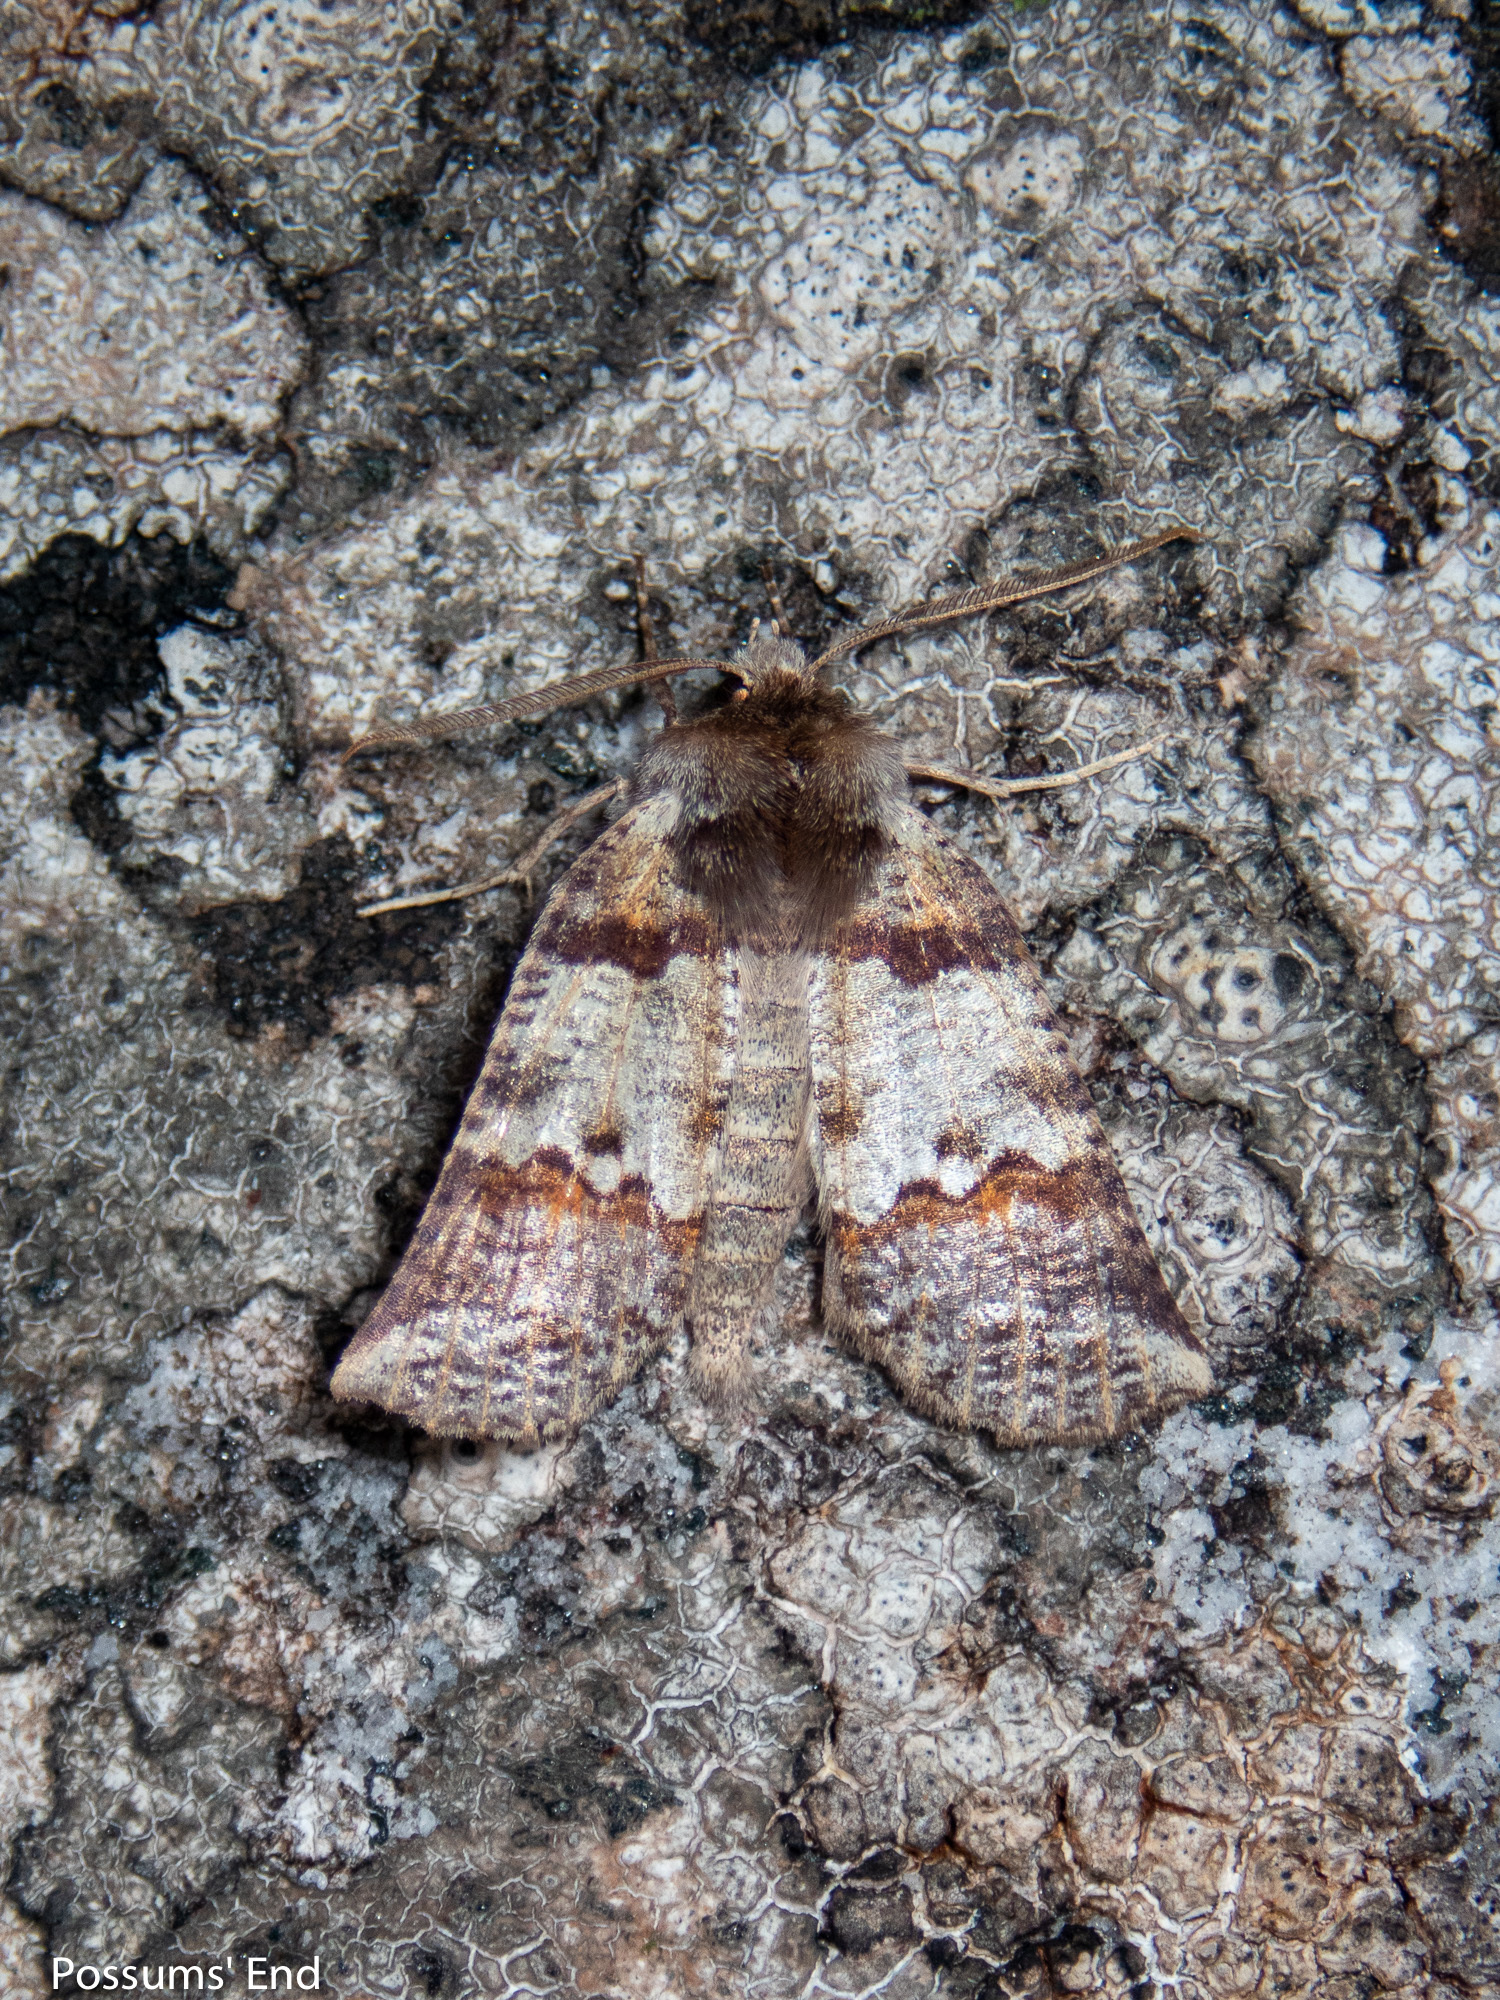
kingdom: Animalia
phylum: Arthropoda
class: Insecta
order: Lepidoptera
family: Geometridae
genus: Declana
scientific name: Declana
